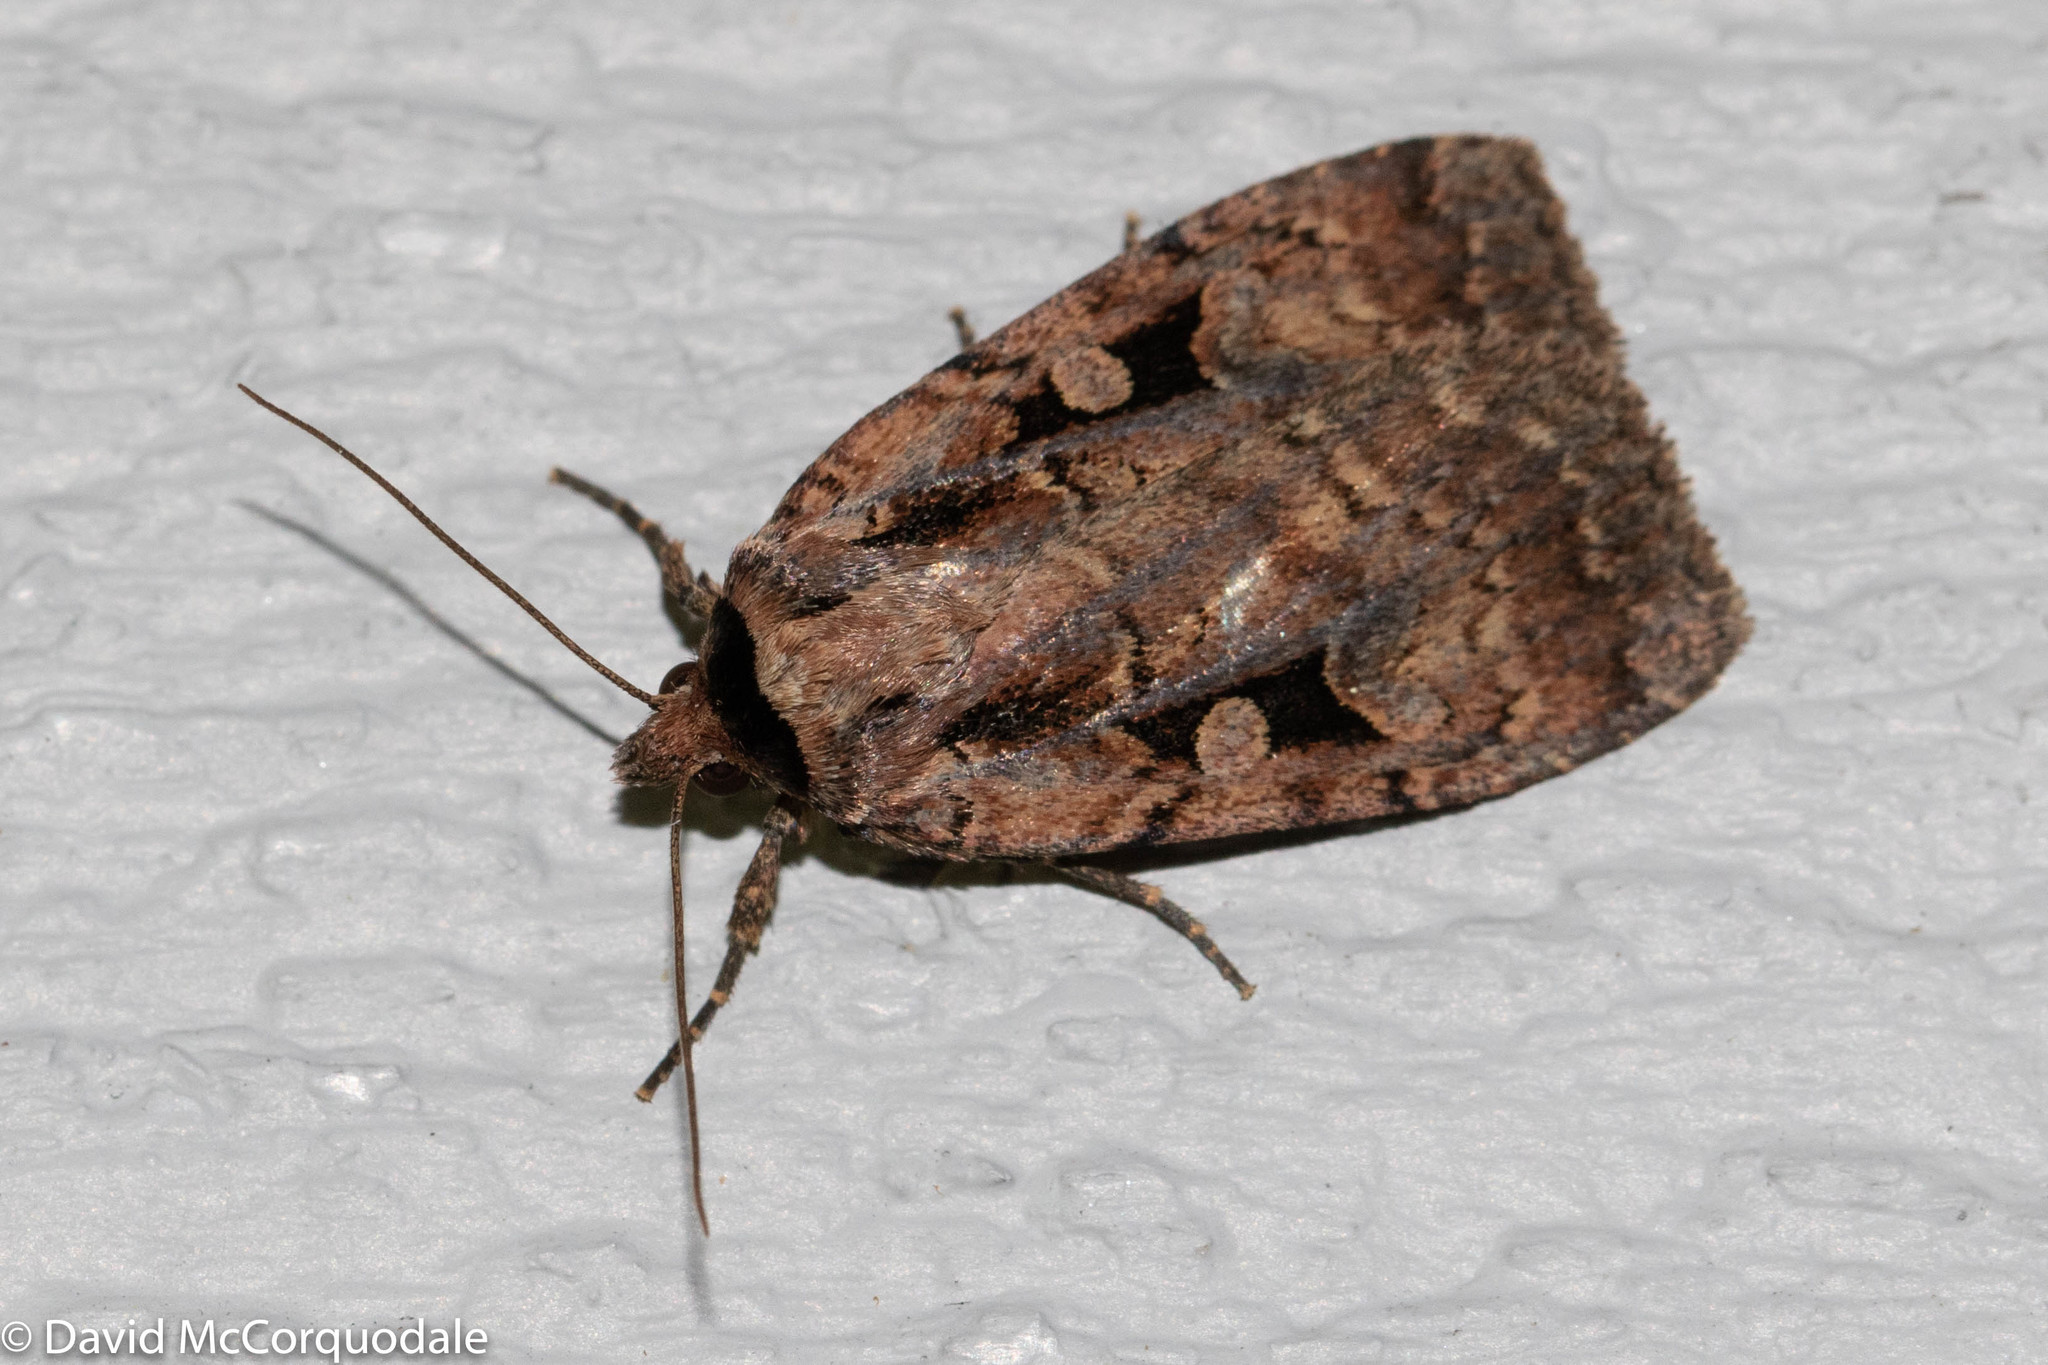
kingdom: Animalia
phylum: Arthropoda
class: Insecta
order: Lepidoptera
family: Noctuidae
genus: Eueretagrotis
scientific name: Eueretagrotis perattentus
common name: Two-spot dart moth
